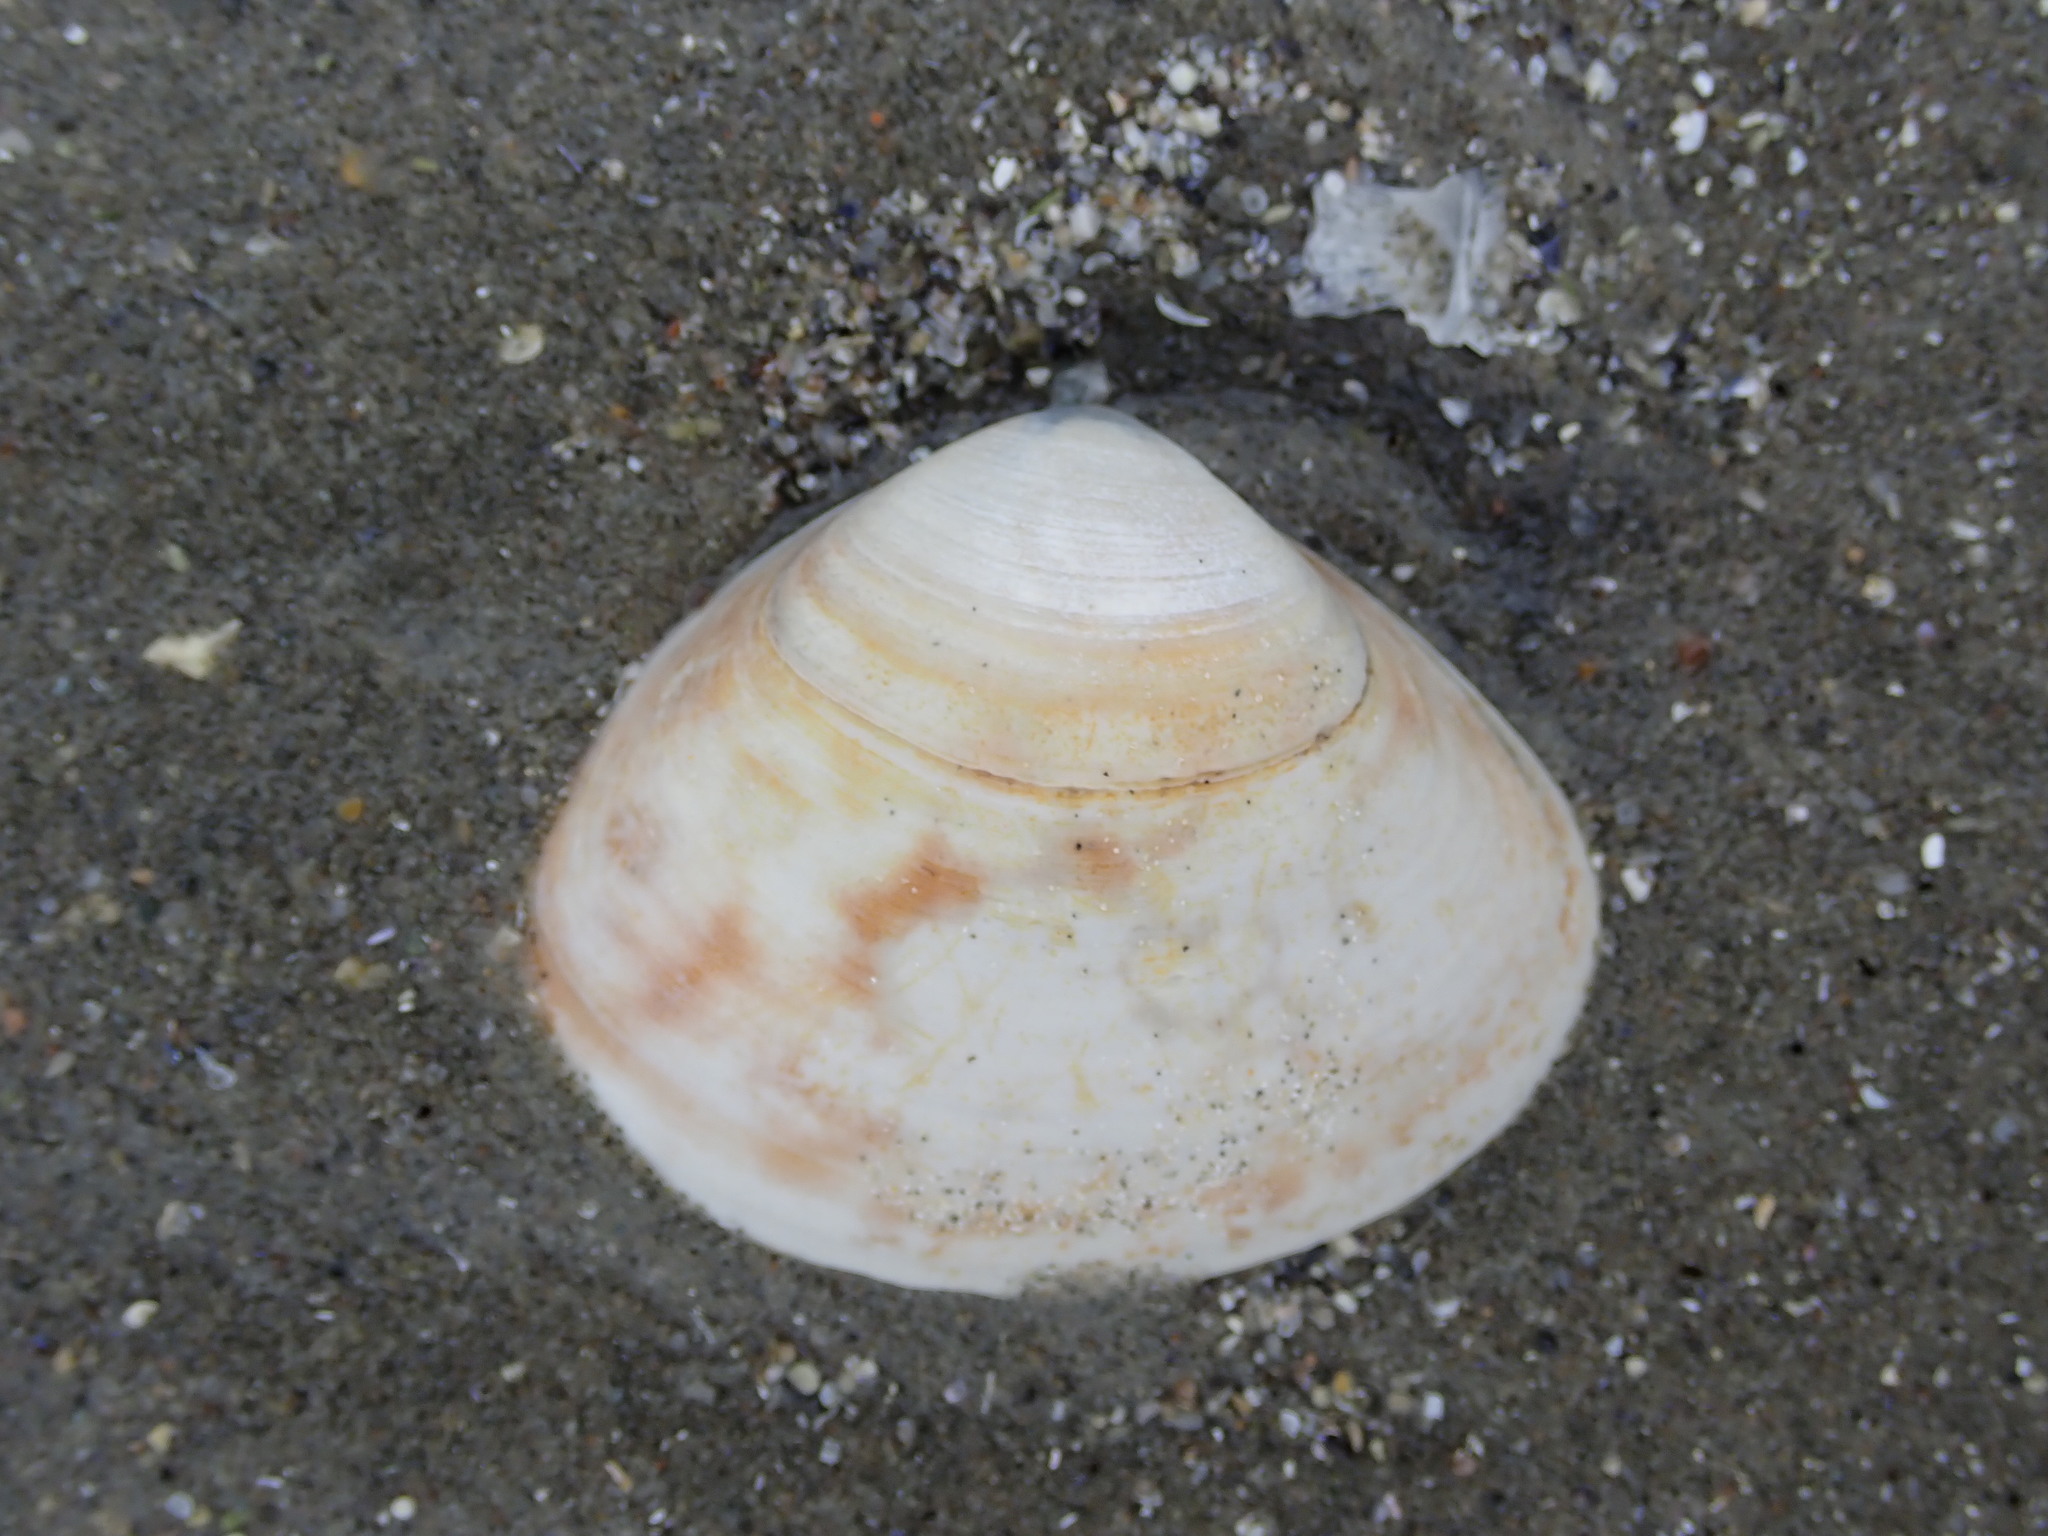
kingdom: Animalia
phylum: Mollusca
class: Bivalvia
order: Venerida
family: Mactridae
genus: Spisula
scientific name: Spisula solidissima
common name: Atlantic surf clam
